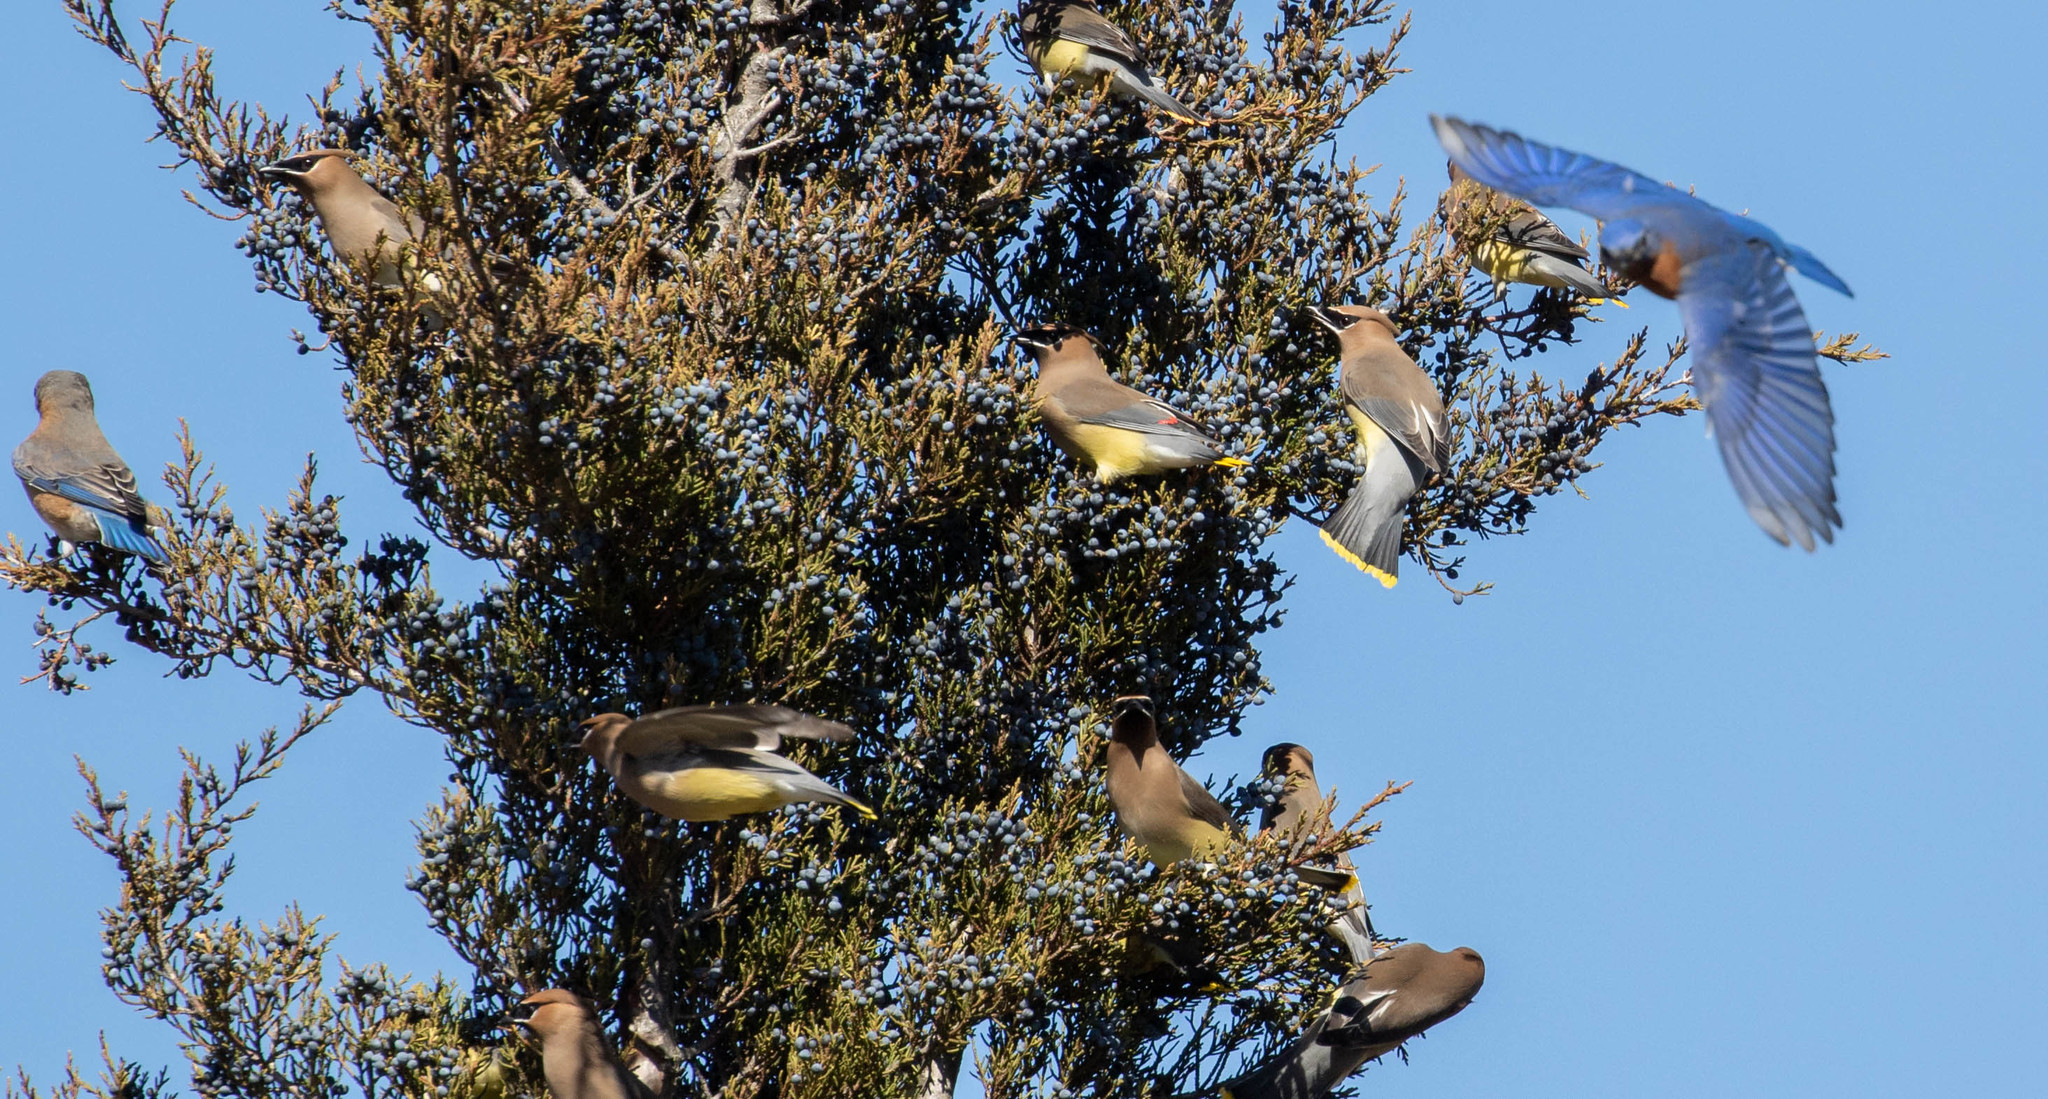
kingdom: Animalia
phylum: Chordata
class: Aves
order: Passeriformes
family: Bombycillidae
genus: Bombycilla
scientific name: Bombycilla cedrorum
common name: Cedar waxwing
